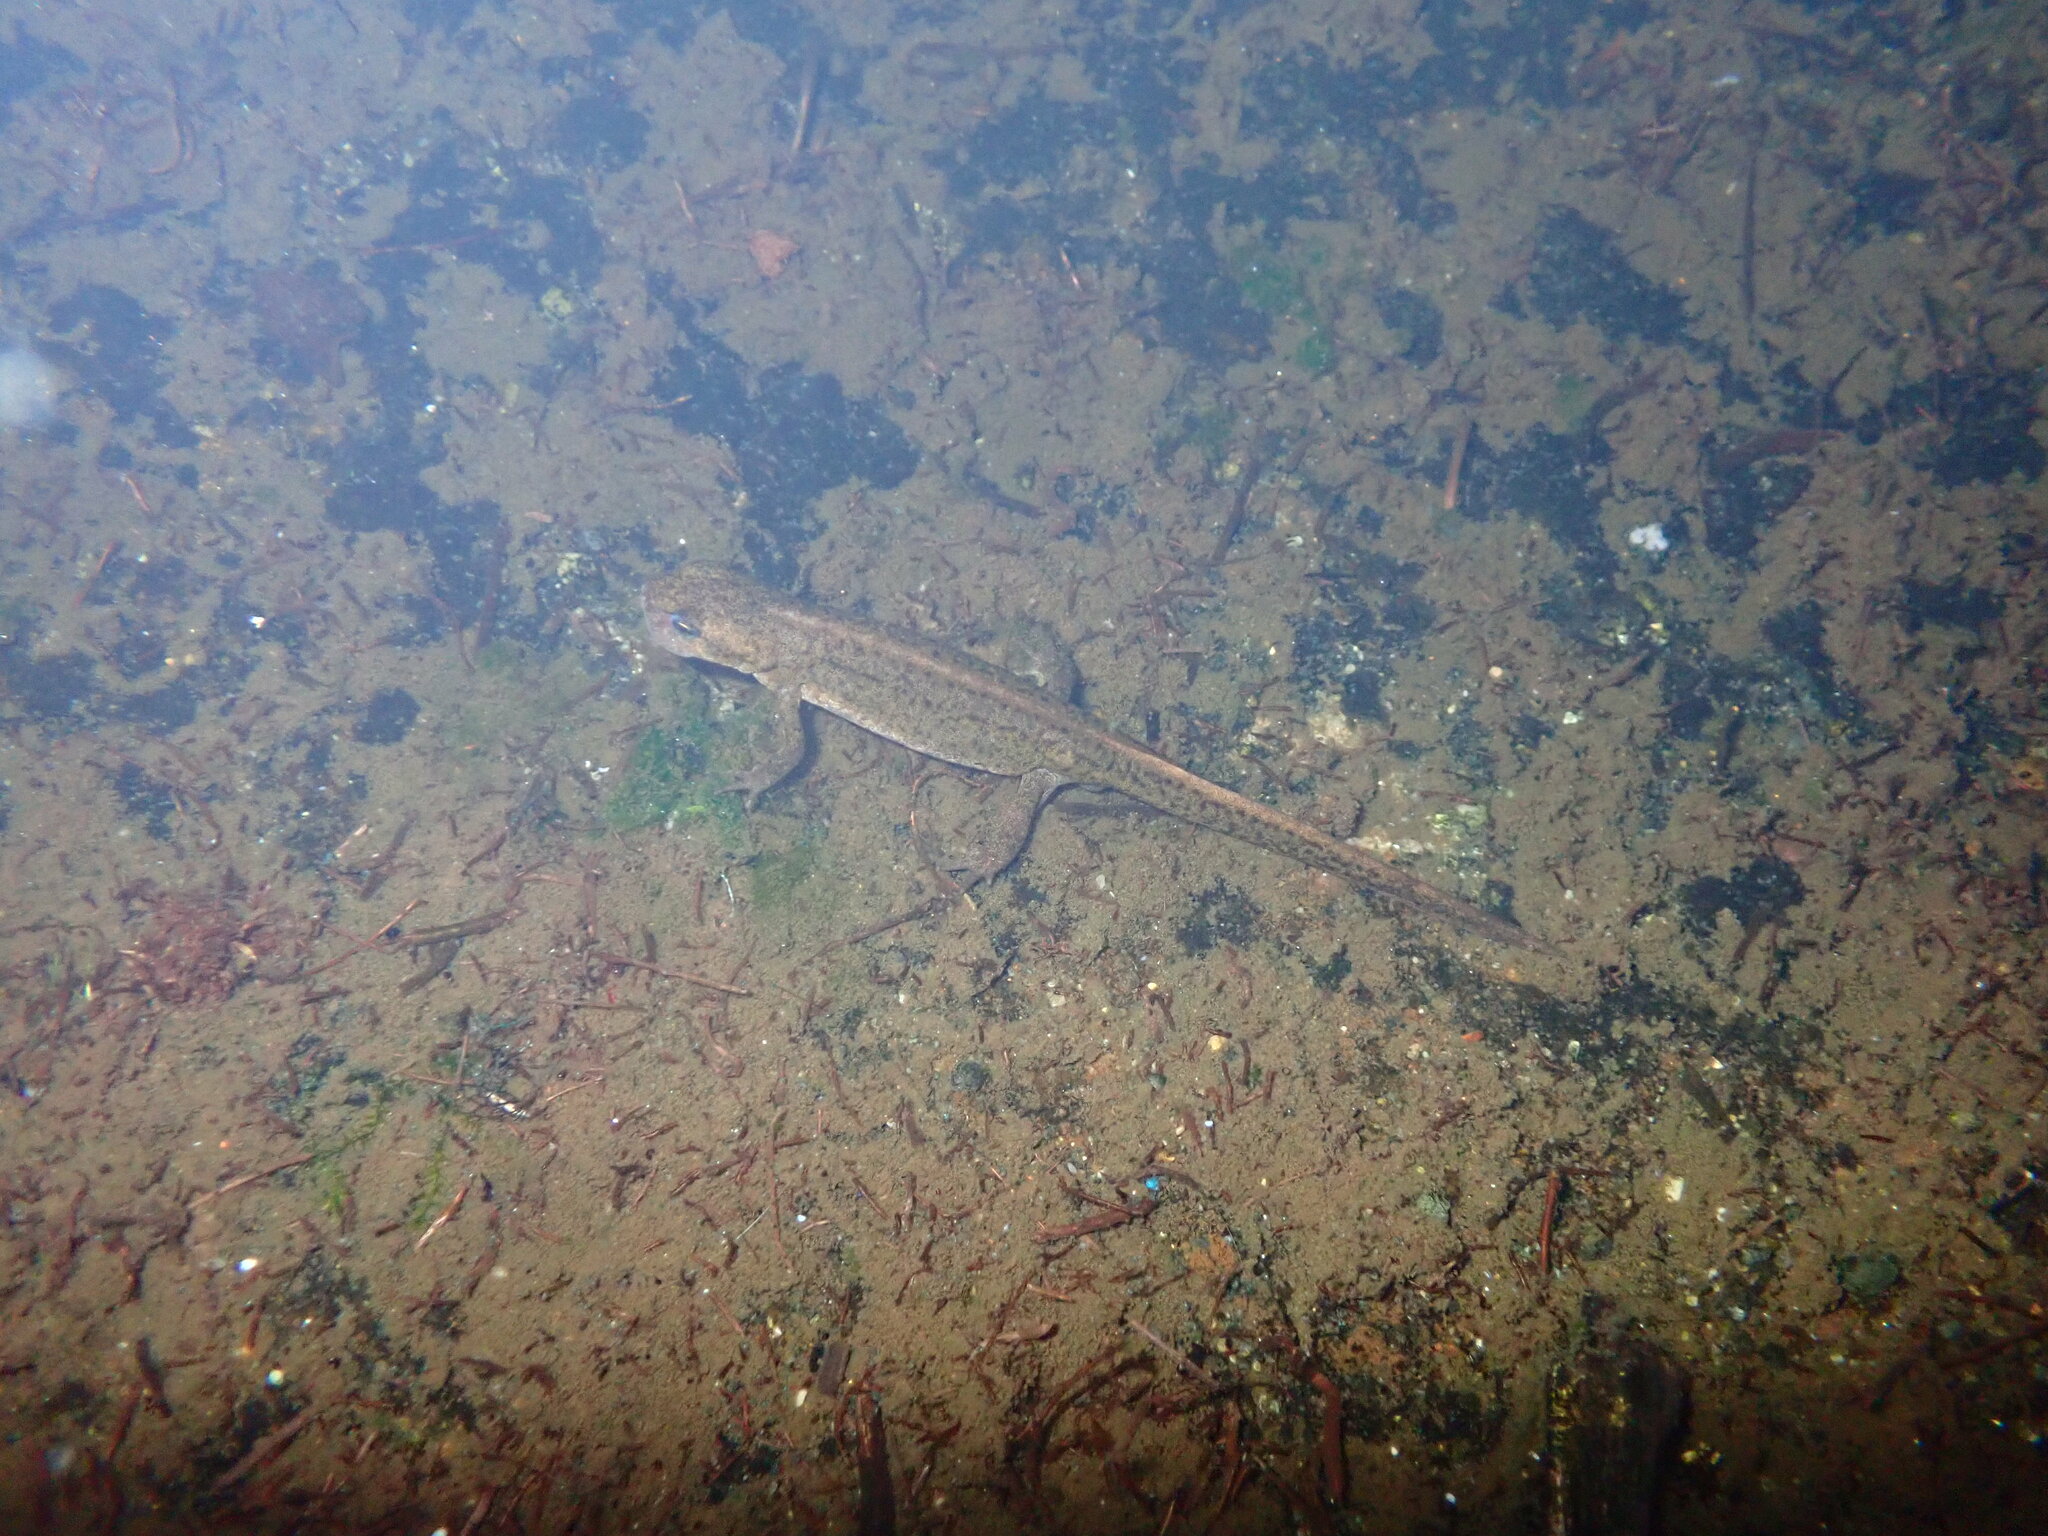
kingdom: Animalia
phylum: Chordata
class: Amphibia
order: Caudata
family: Salamandridae
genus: Lissotriton
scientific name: Lissotriton boscai
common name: Bosca's newt
